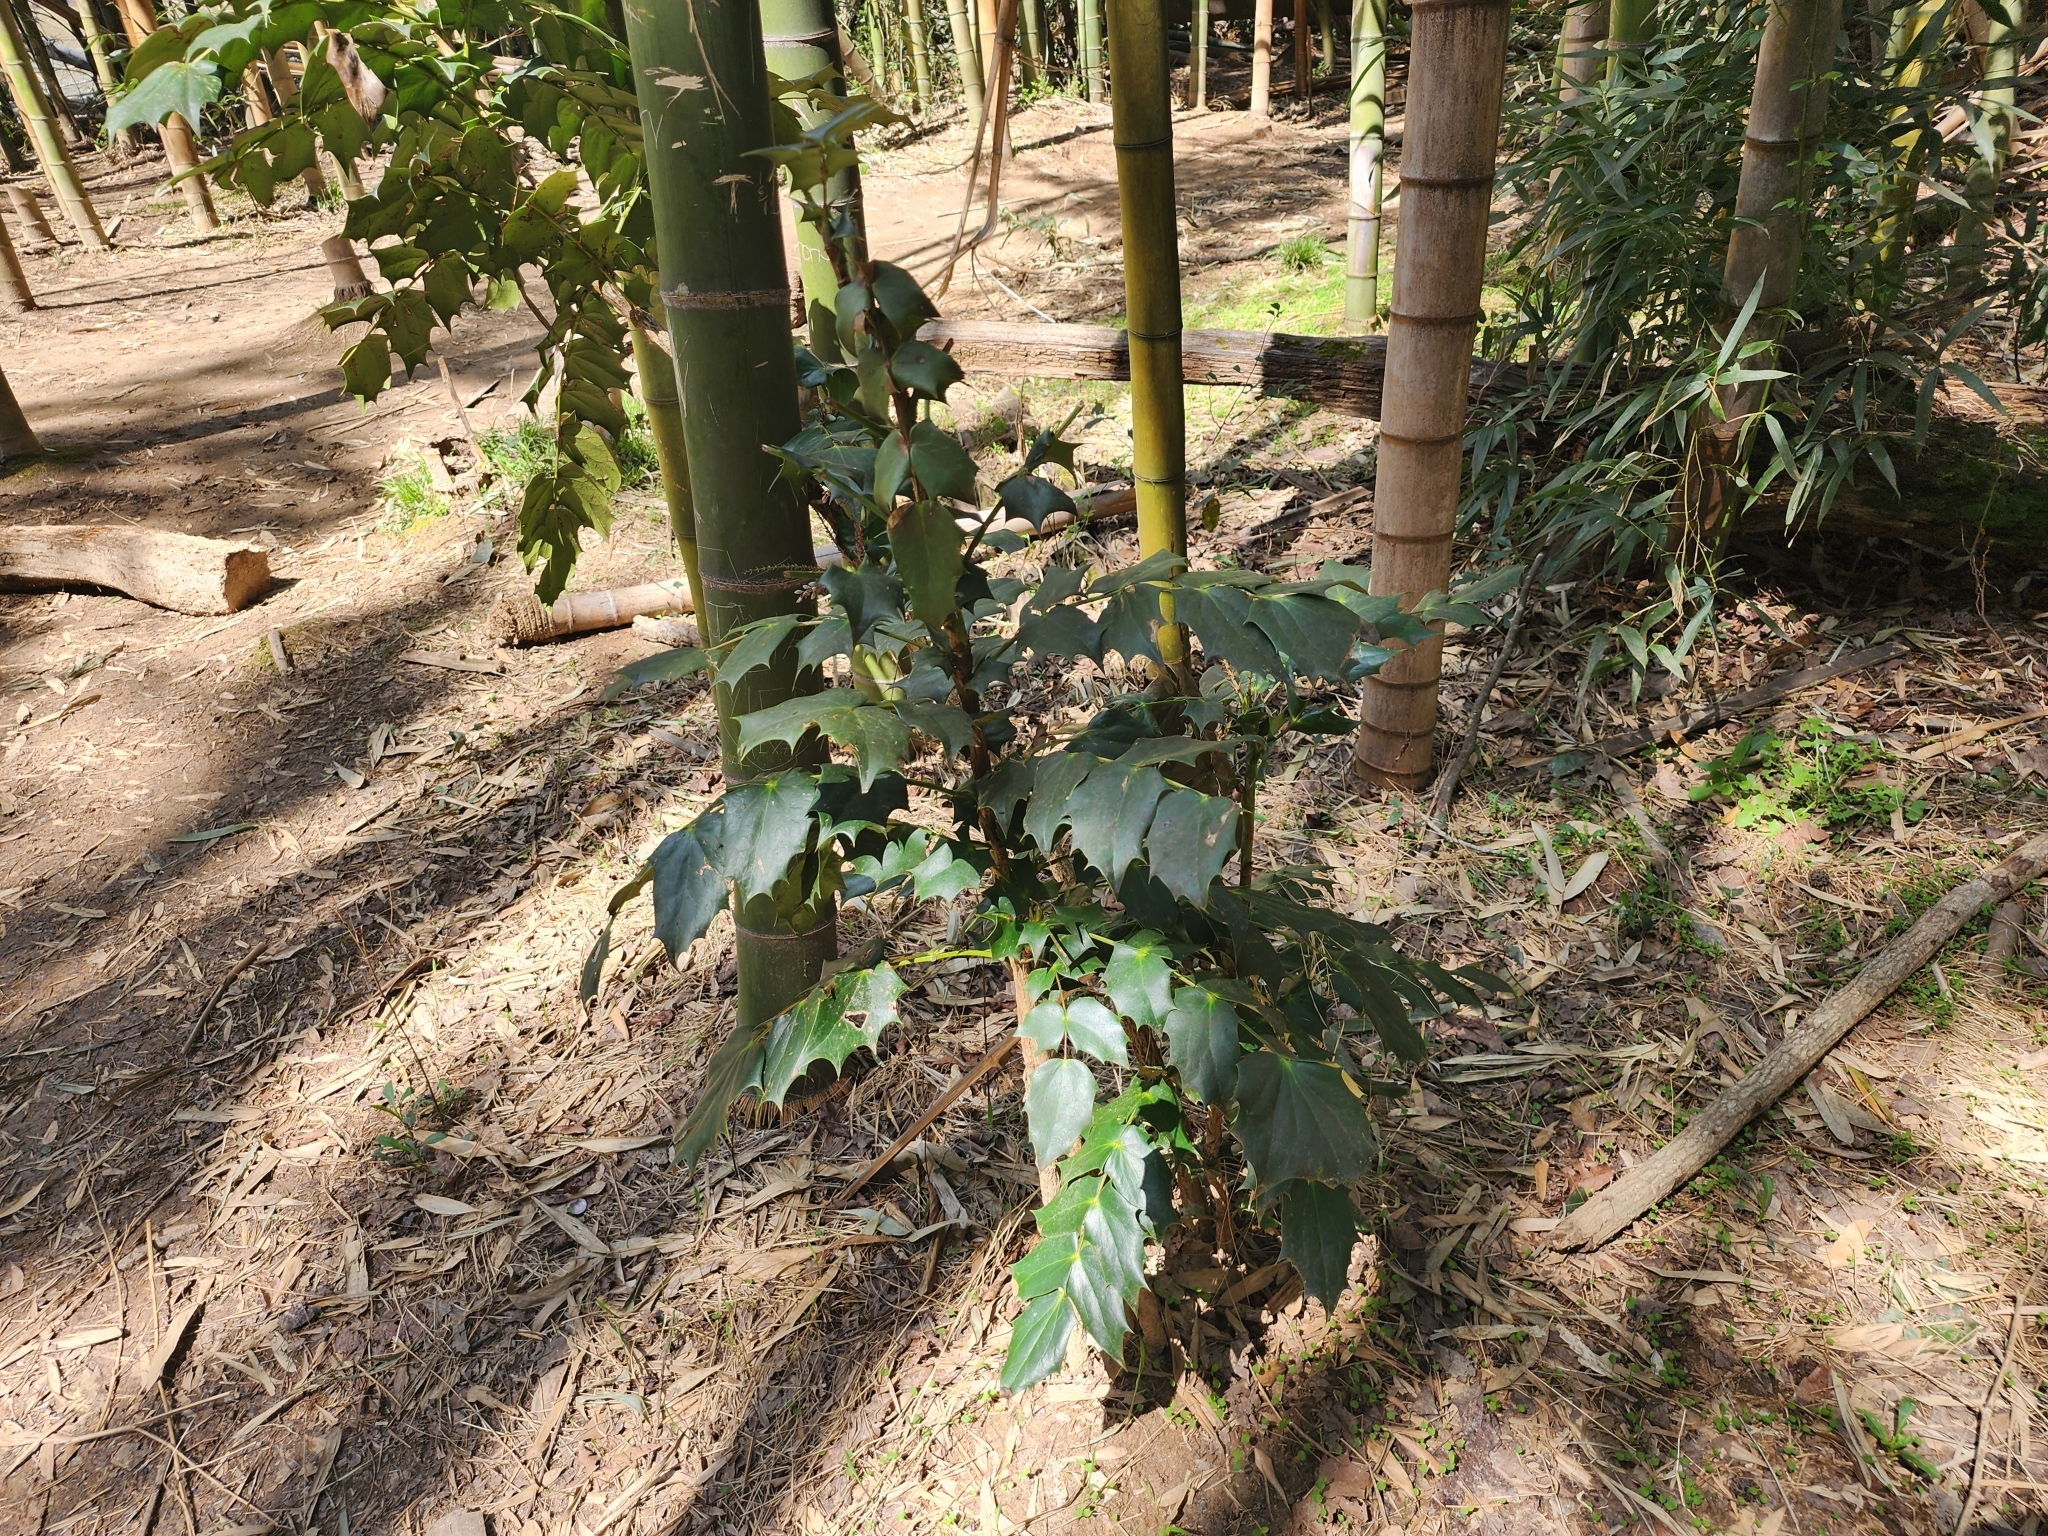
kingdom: Plantae
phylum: Tracheophyta
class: Magnoliopsida
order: Ranunculales
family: Berberidaceae
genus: Mahonia
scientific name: Mahonia bealei
